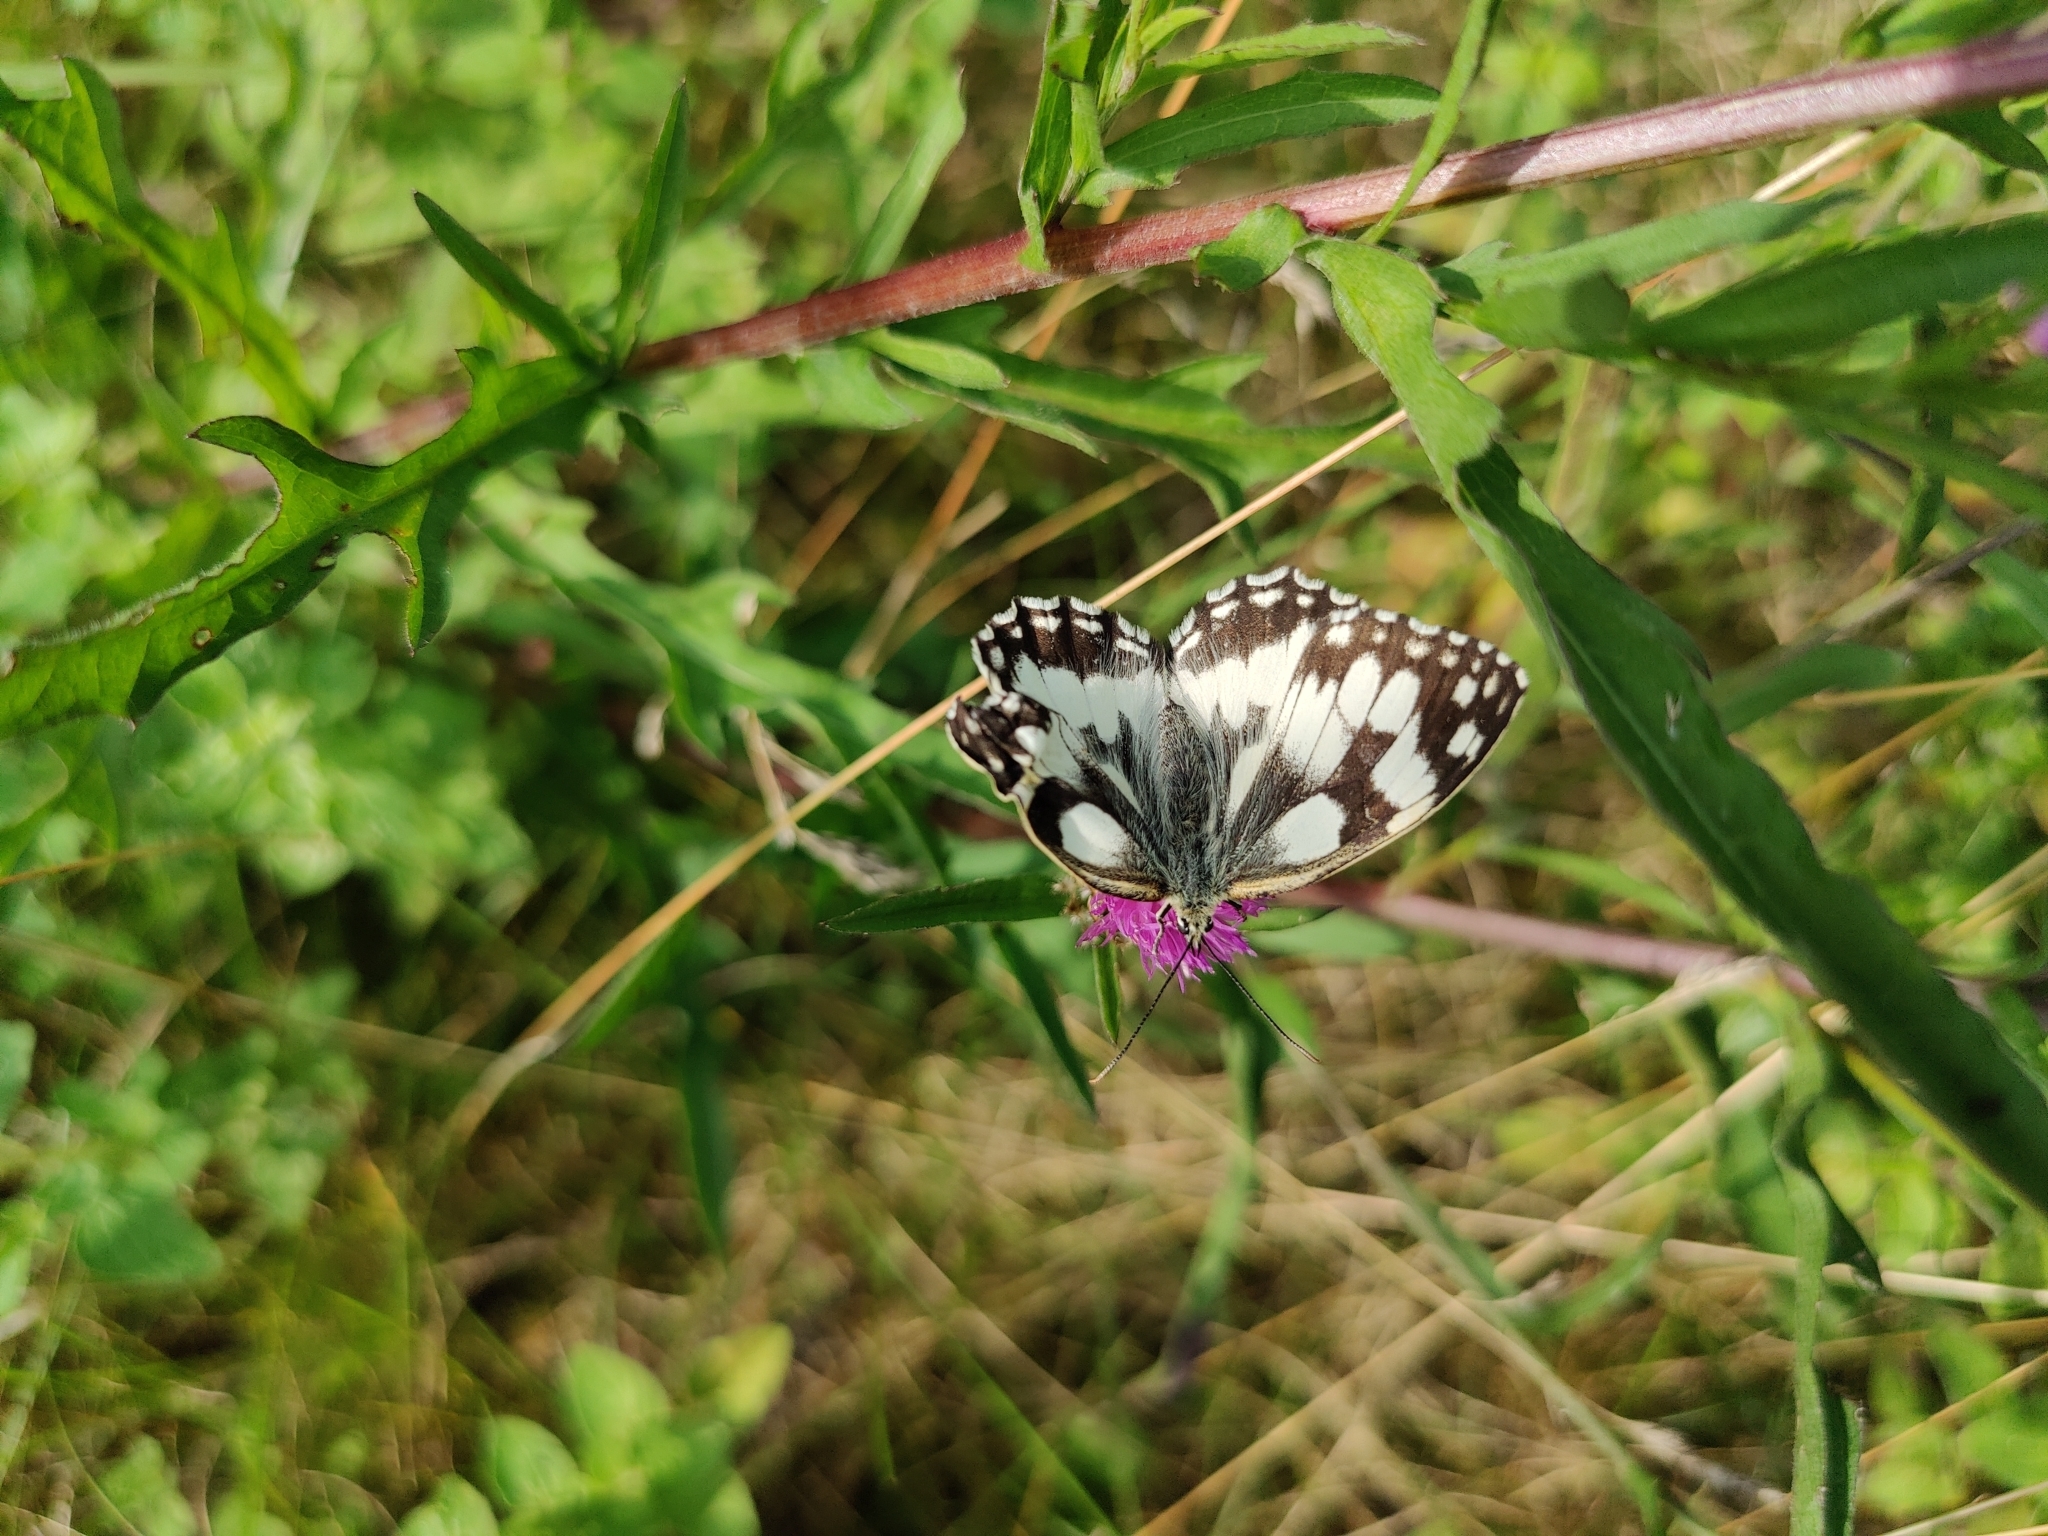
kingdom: Animalia
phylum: Arthropoda
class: Insecta
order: Lepidoptera
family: Nymphalidae
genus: Melanargia
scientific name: Melanargia galathea
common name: Marbled white
